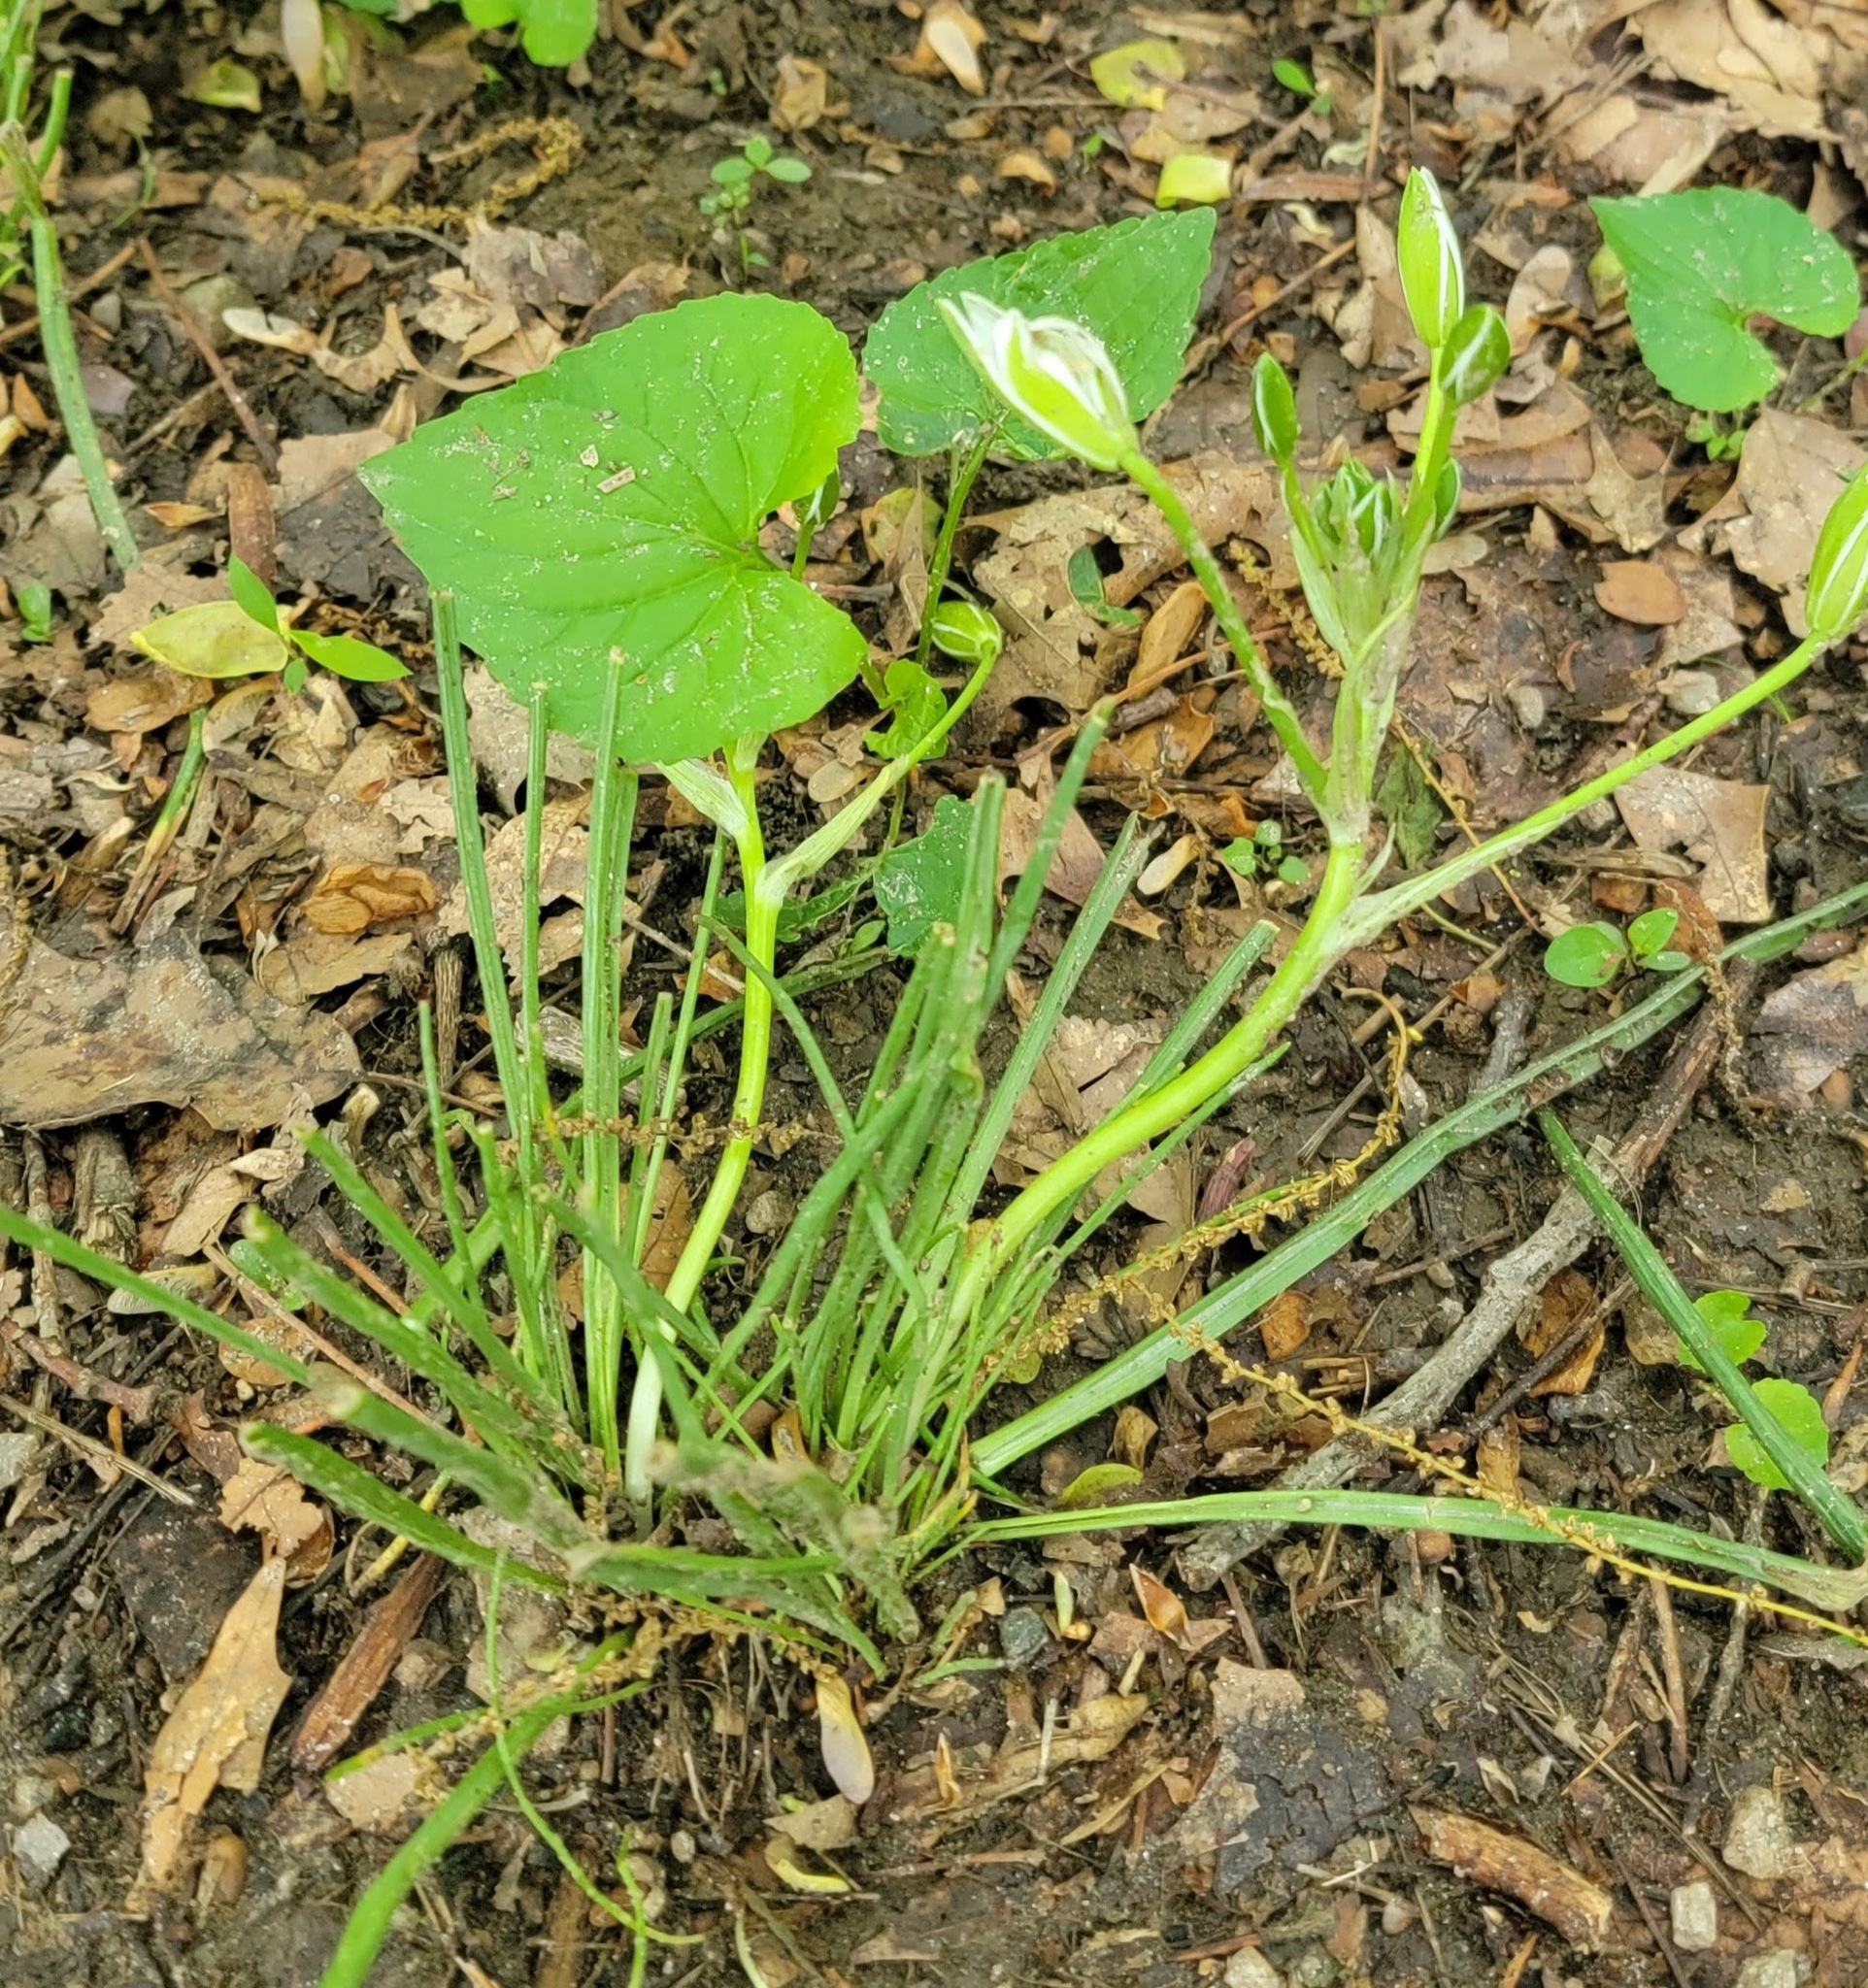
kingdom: Plantae
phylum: Tracheophyta
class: Liliopsida
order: Asparagales
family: Asparagaceae
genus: Ornithogalum
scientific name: Ornithogalum umbellatum
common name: Garden star-of-bethlehem
